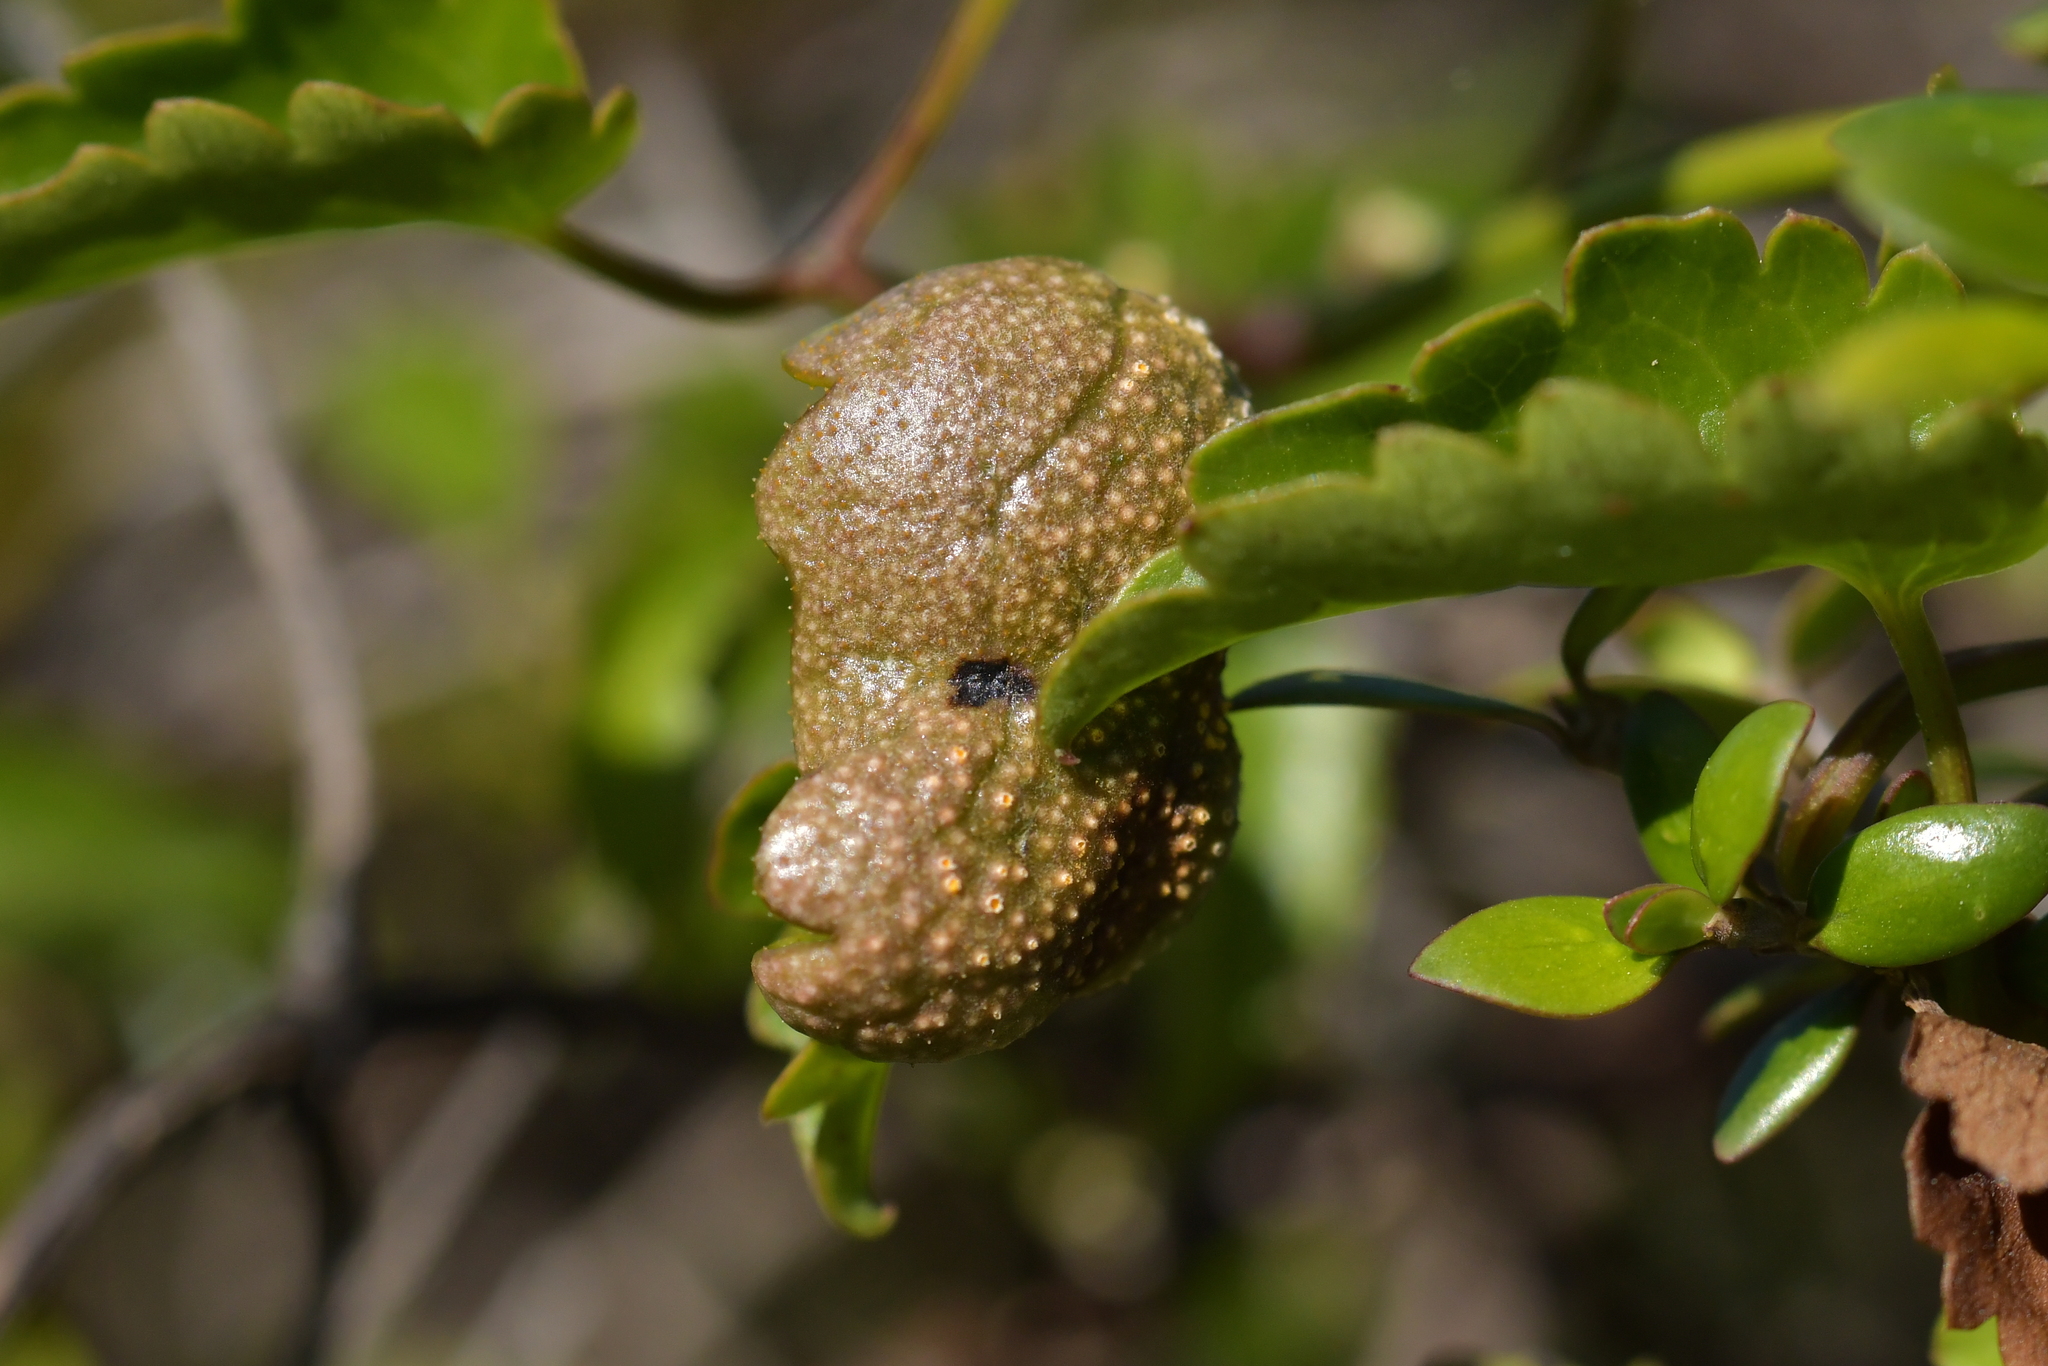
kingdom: Fungi
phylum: Basidiomycota
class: Pucciniomycetes
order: Pucciniales
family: Pucciniaceae
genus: Puccinia
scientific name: Puccinia otagensis
